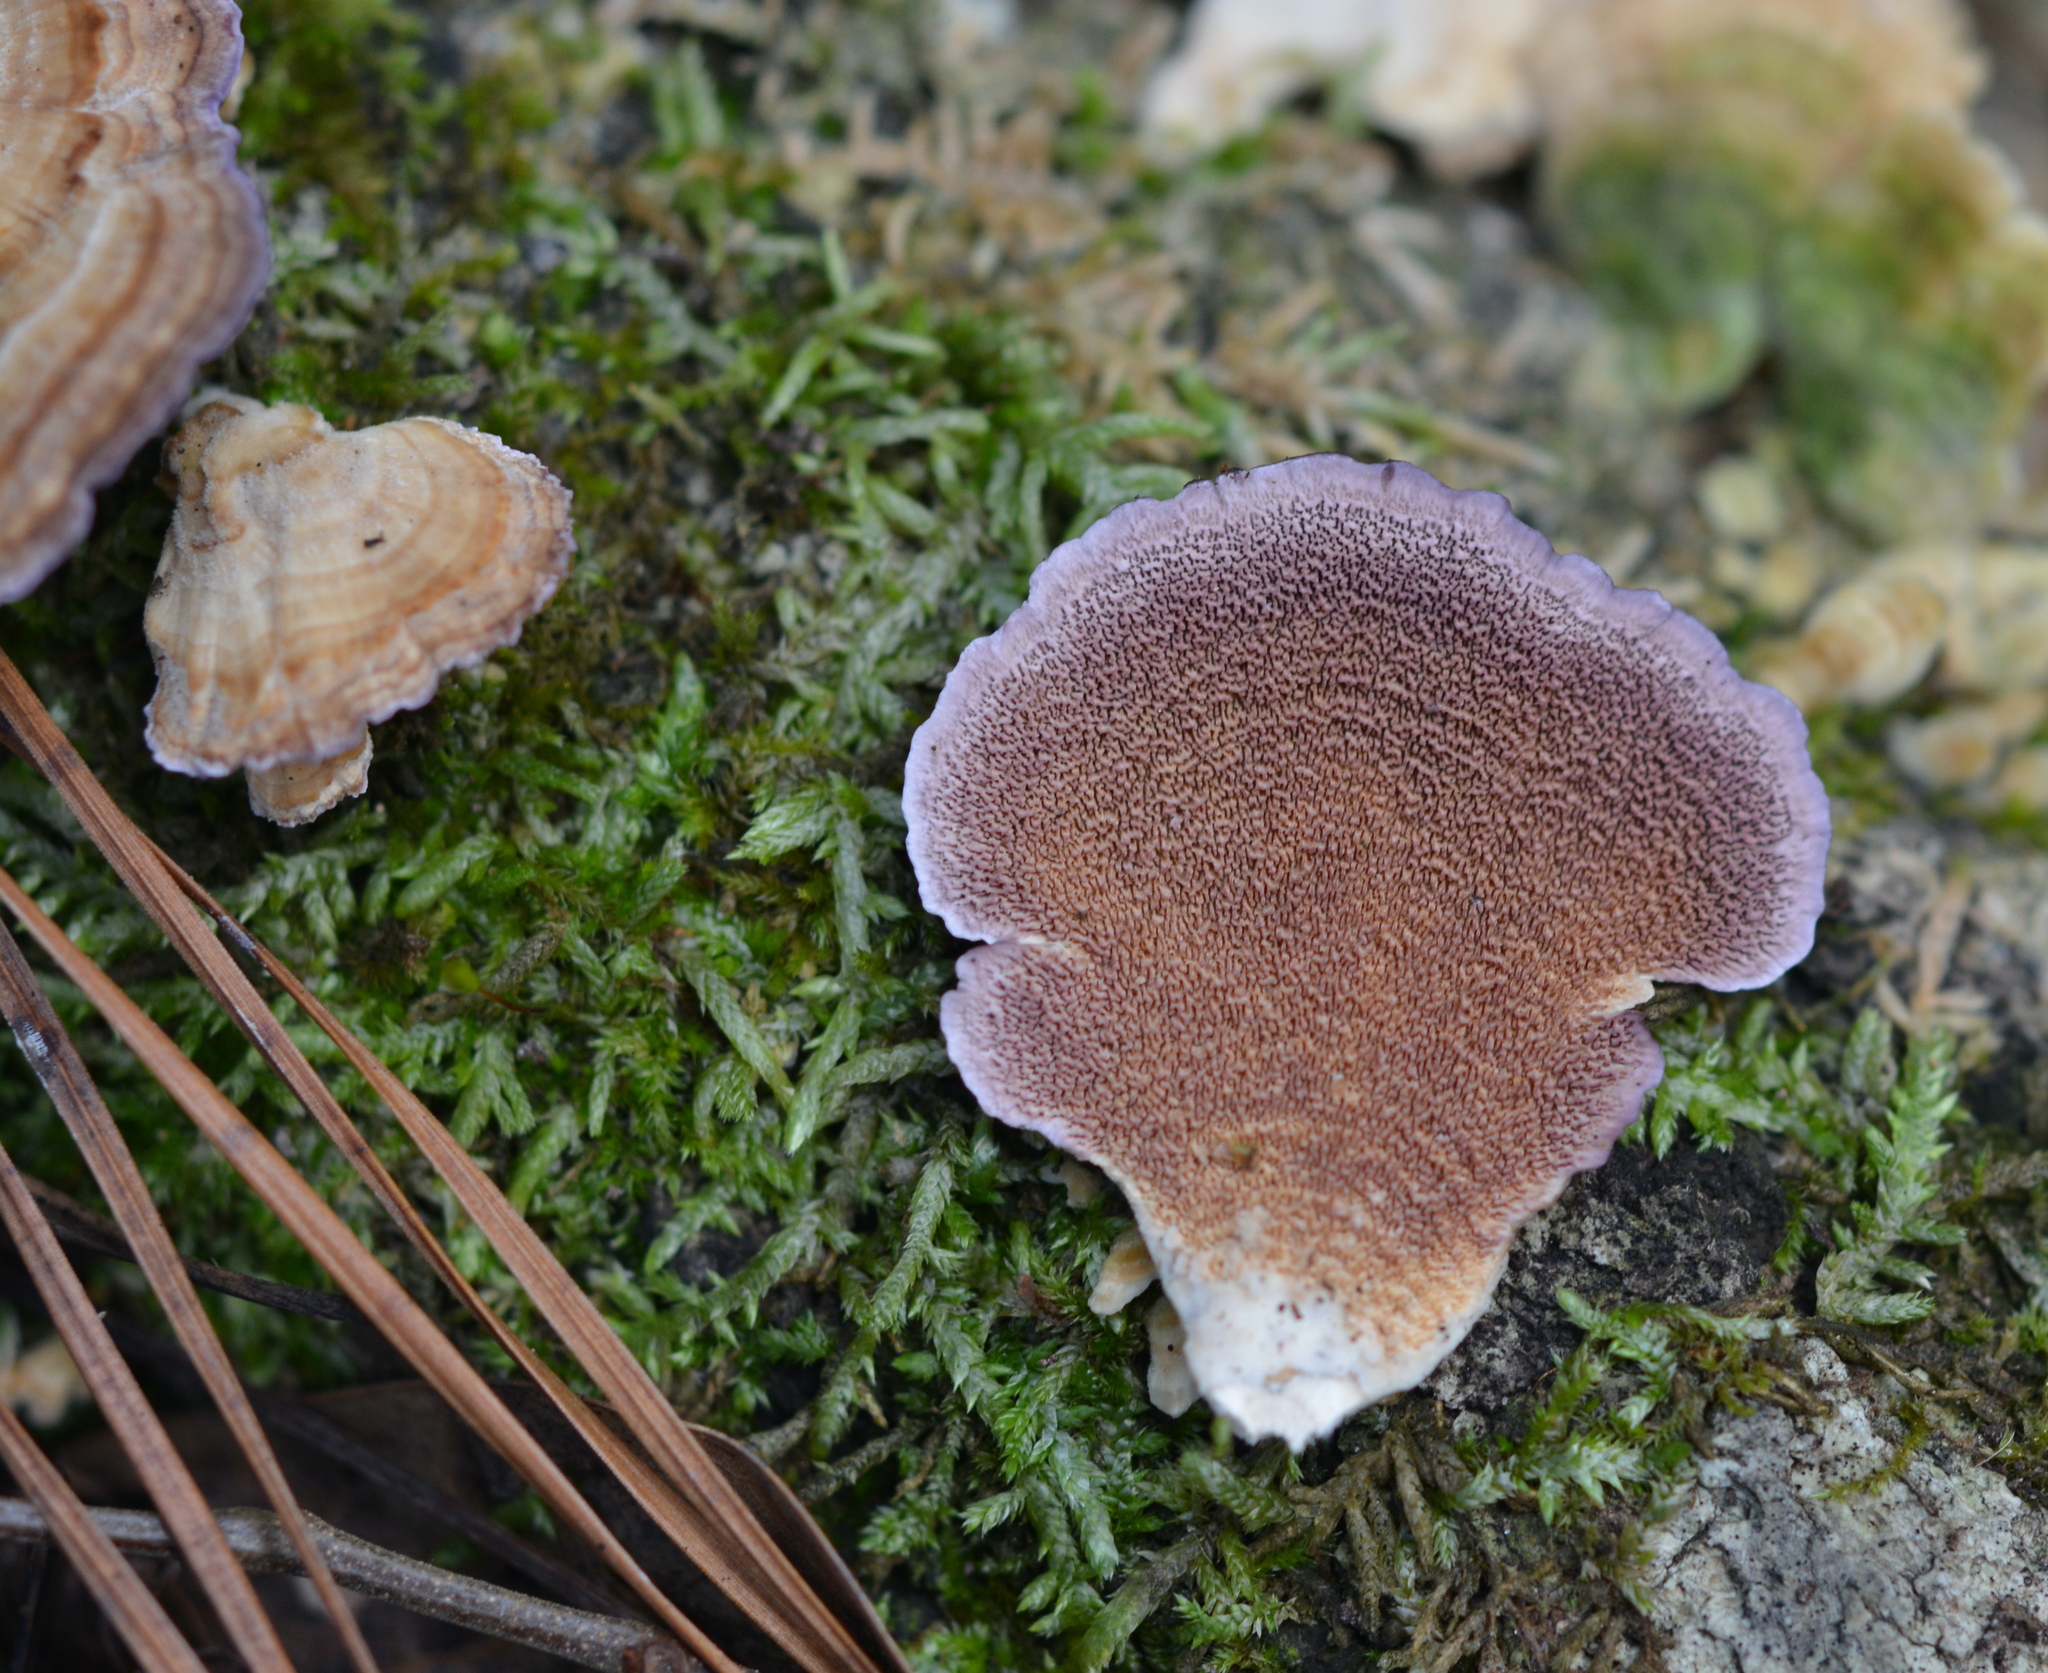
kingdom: Fungi
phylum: Basidiomycota
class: Agaricomycetes
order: Hymenochaetales
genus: Trichaptum
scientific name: Trichaptum biforme
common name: Violet-toothed polypore
